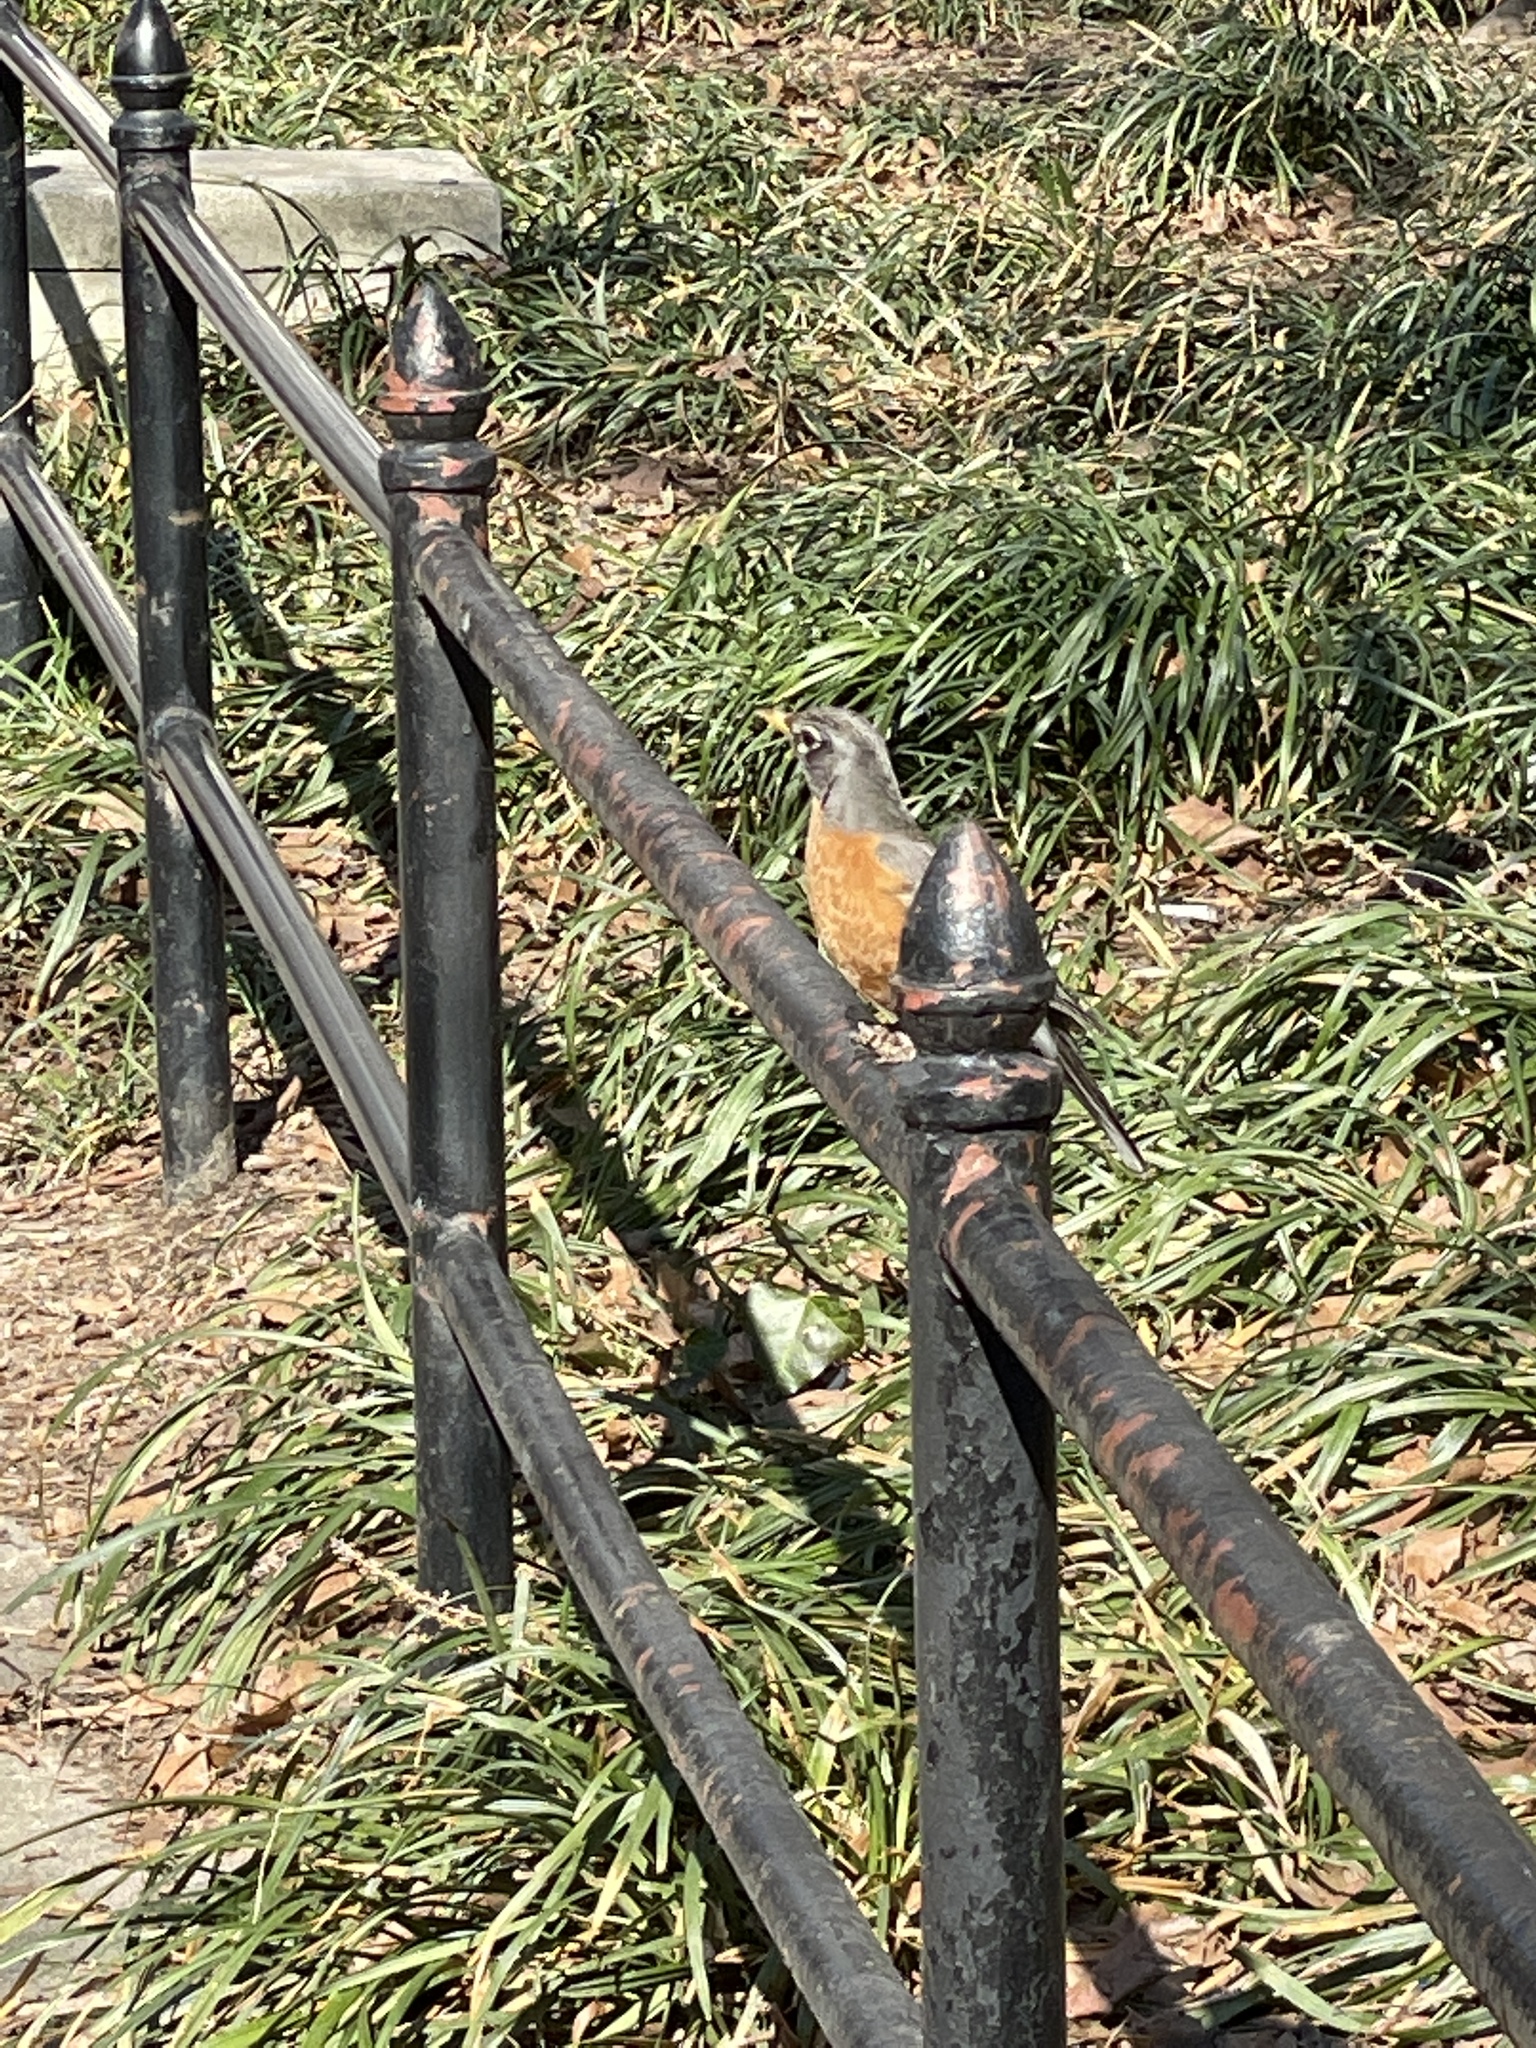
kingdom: Animalia
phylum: Chordata
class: Aves
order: Passeriformes
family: Turdidae
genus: Turdus
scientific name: Turdus migratorius
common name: American robin
